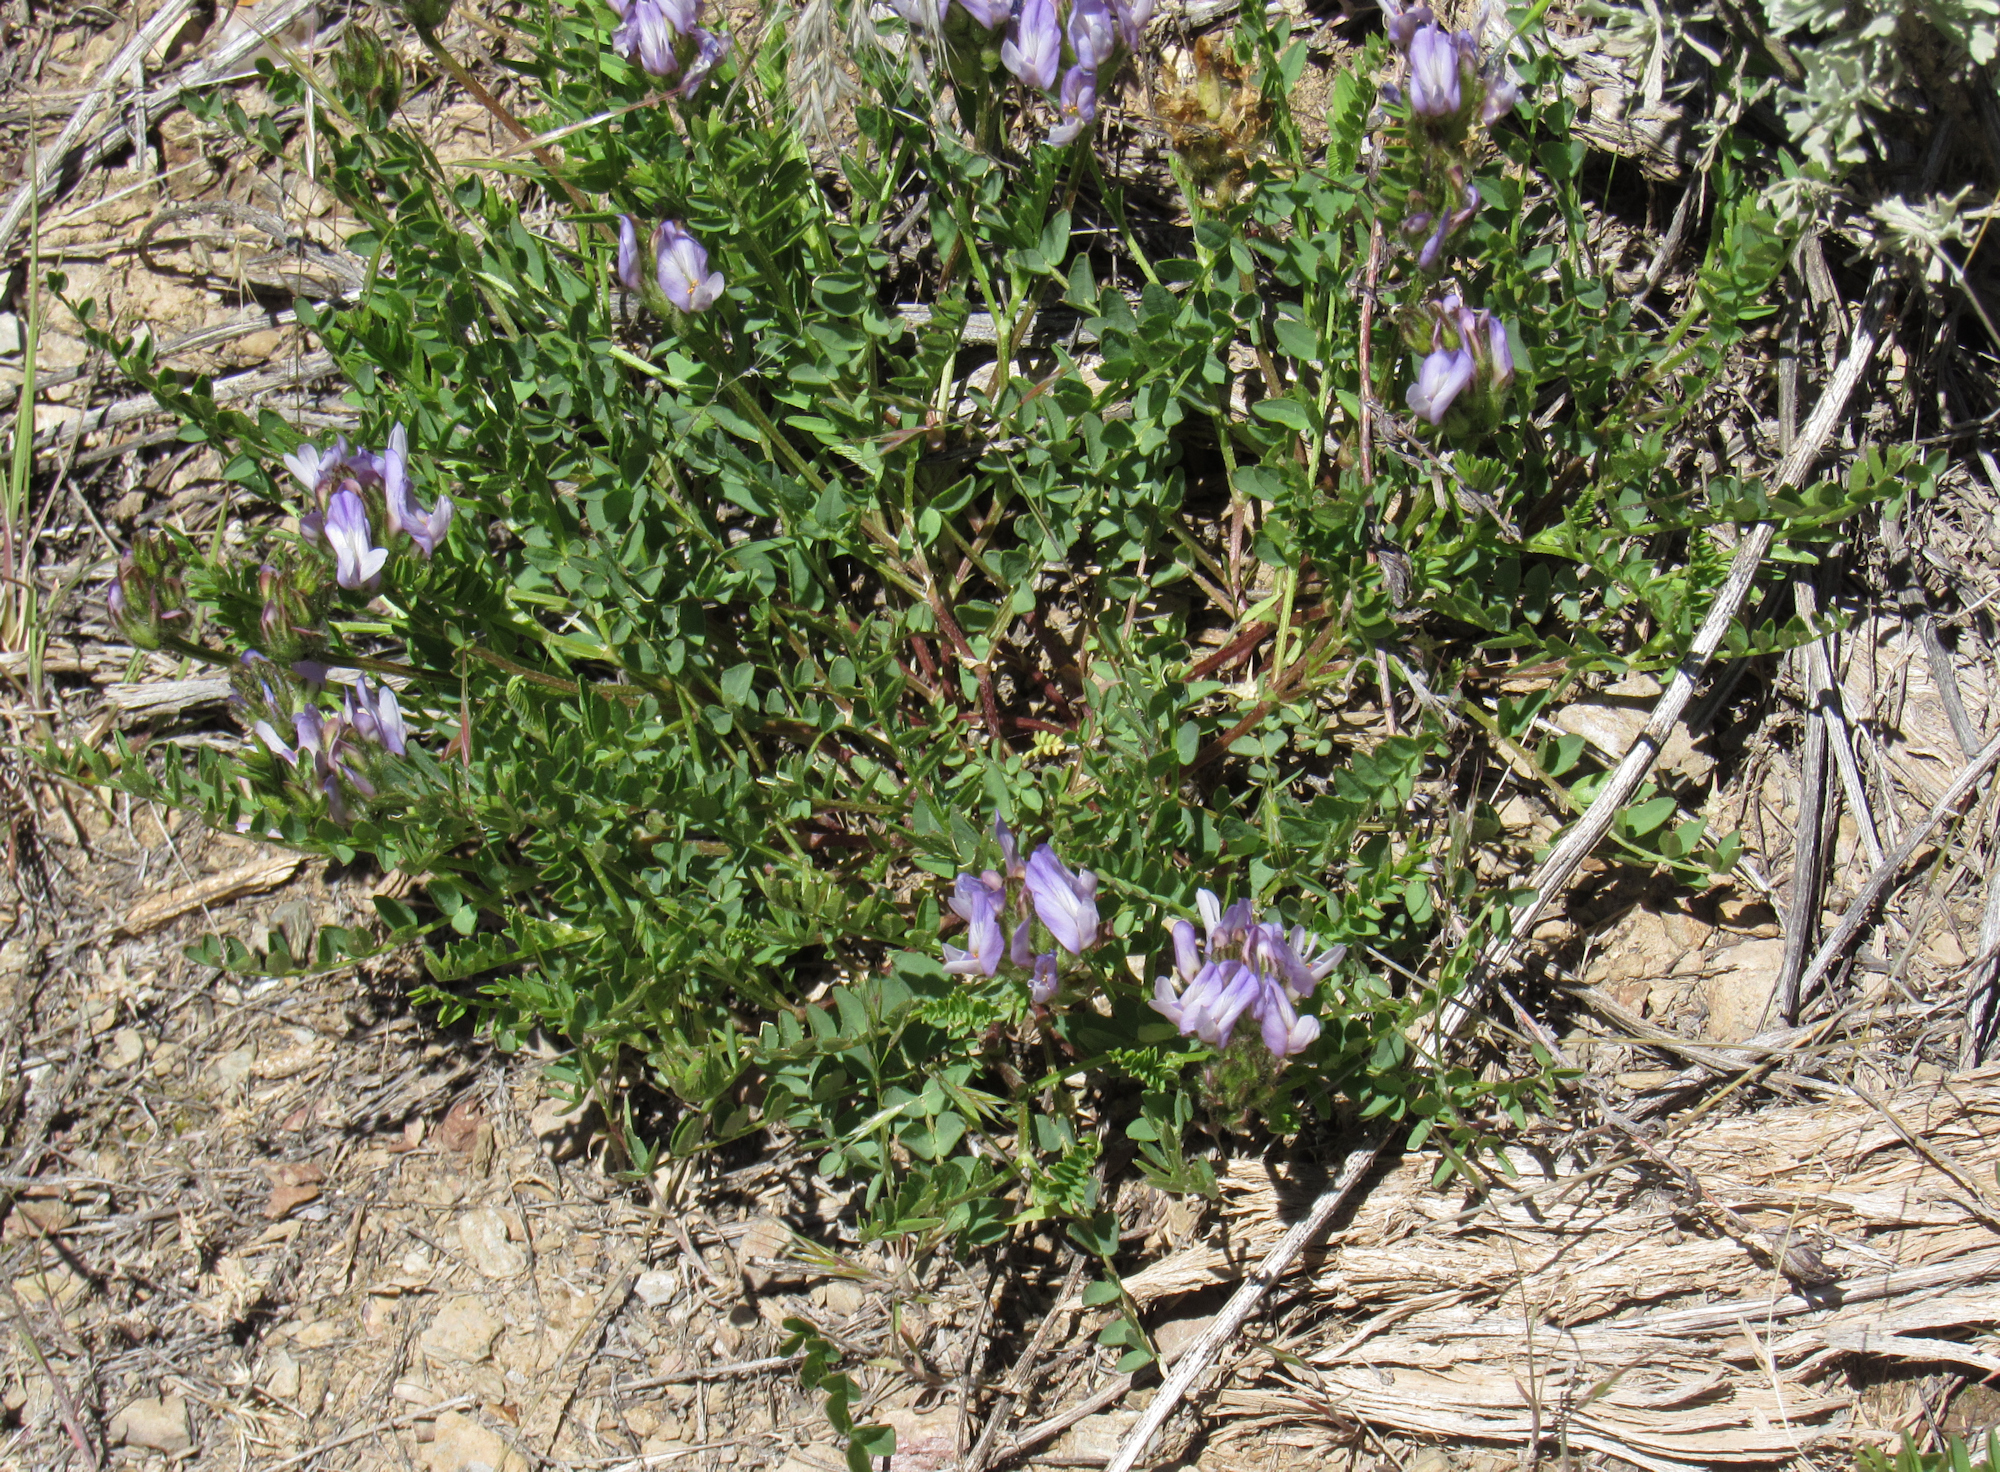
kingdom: Plantae
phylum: Tracheophyta
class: Magnoliopsida
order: Fabales
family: Fabaceae
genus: Astragalus
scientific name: Astragalus agrestis
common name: Field milk-vetch
